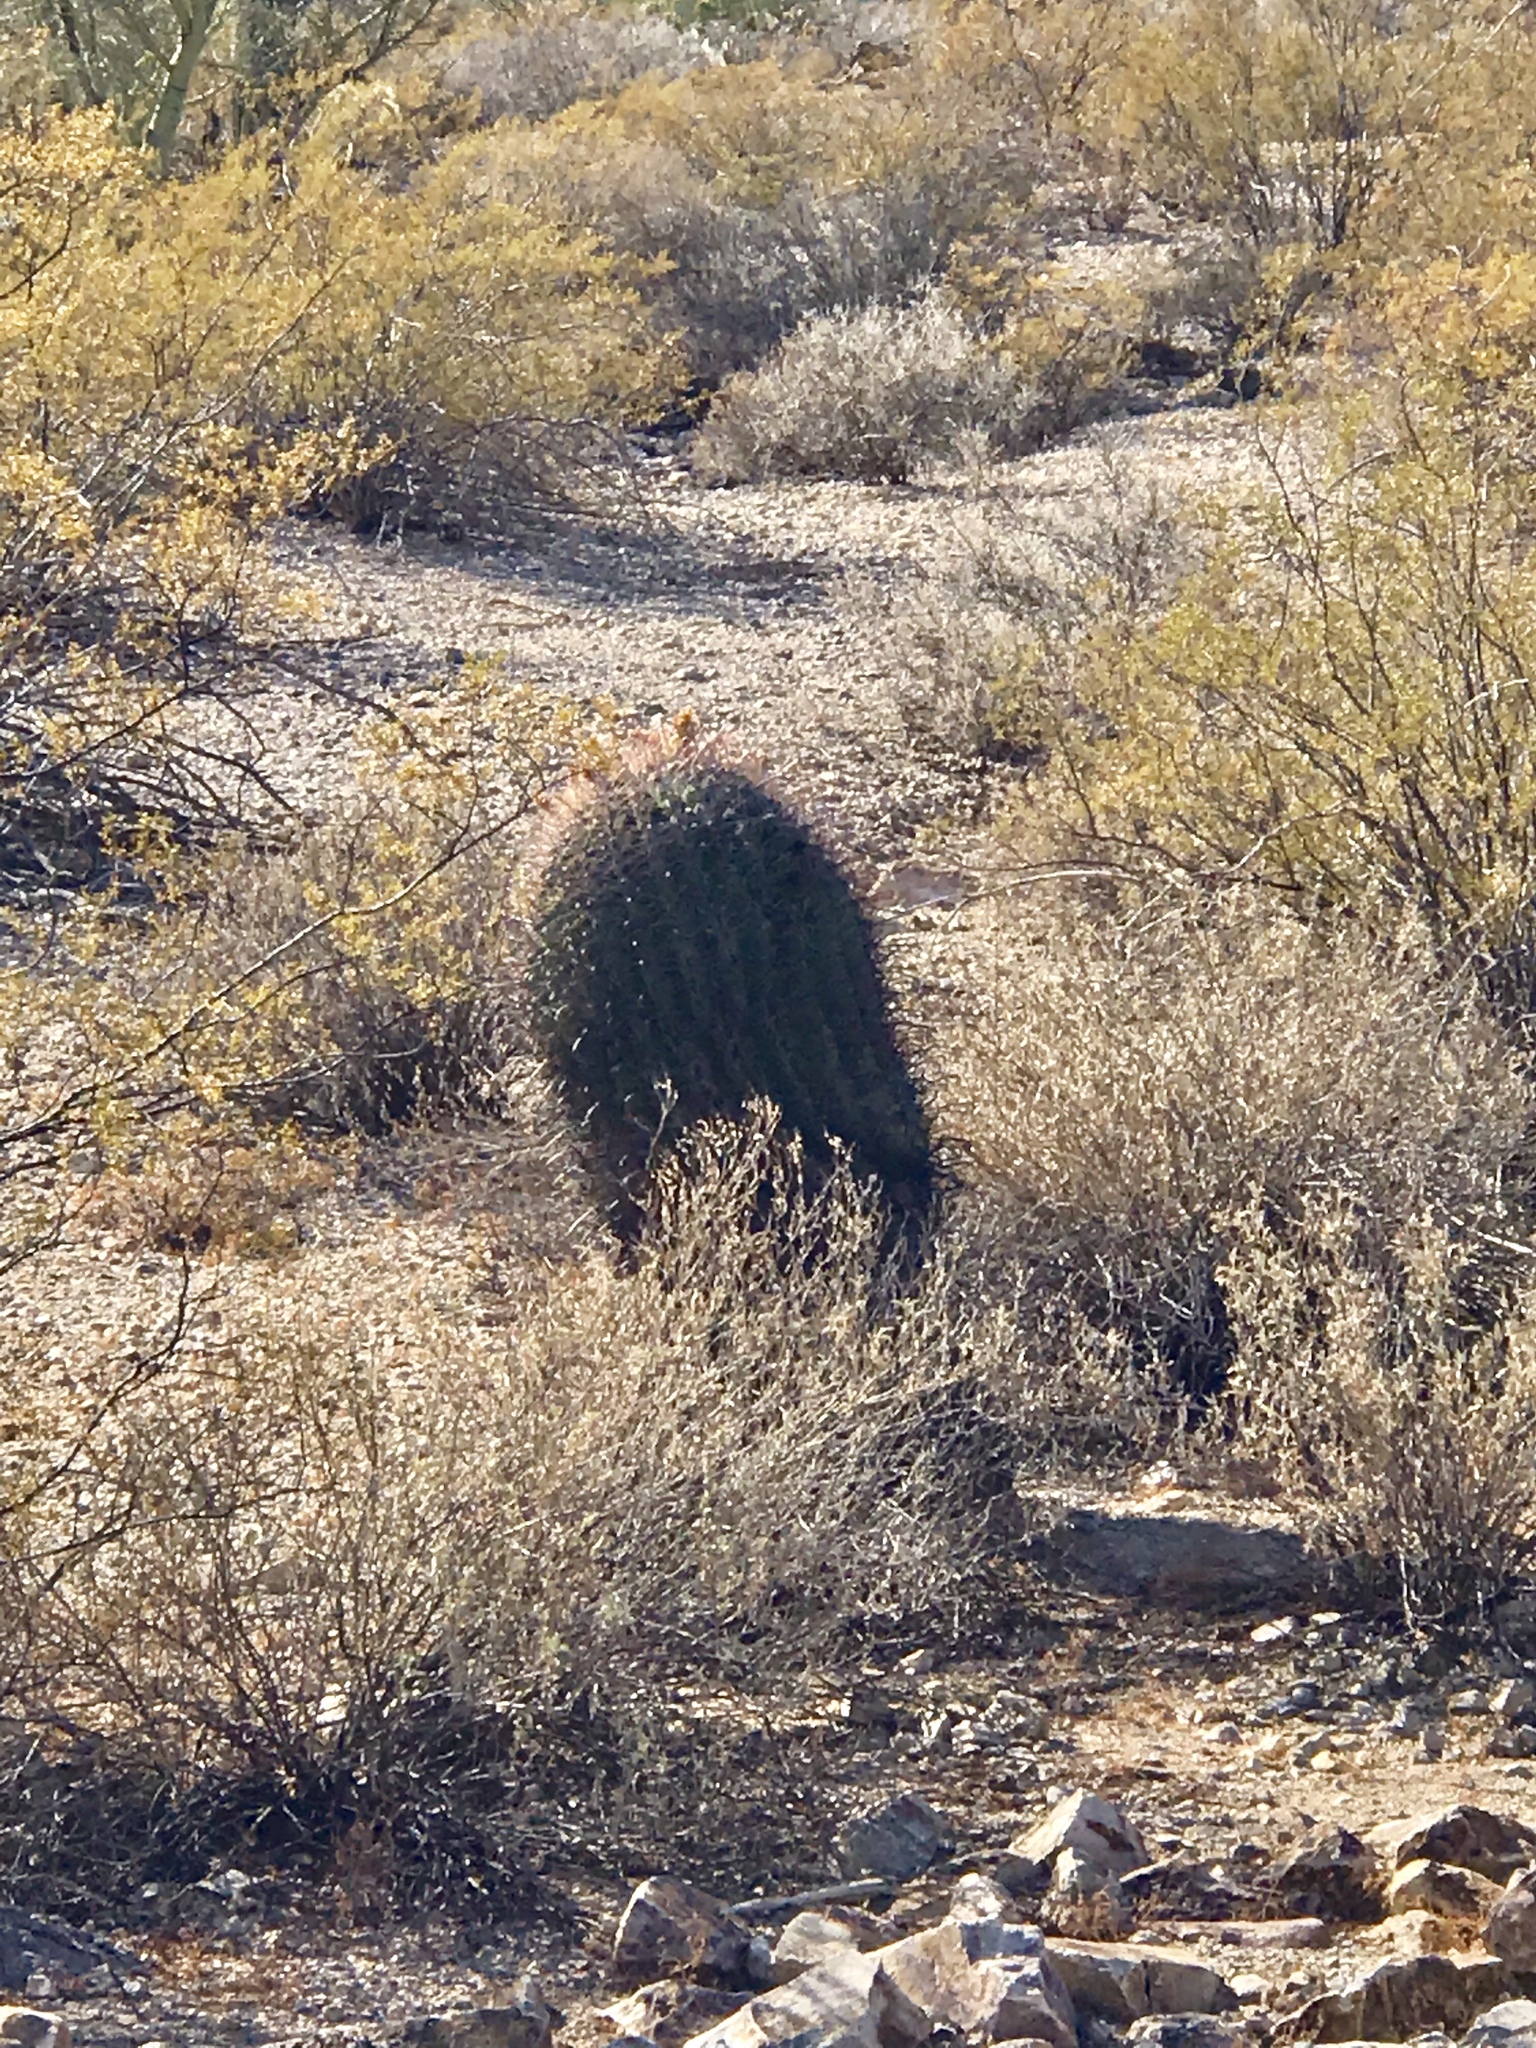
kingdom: Plantae
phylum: Tracheophyta
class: Magnoliopsida
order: Caryophyllales
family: Cactaceae
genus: Ferocactus
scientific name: Ferocactus wislizeni
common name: Candy barrel cactus
